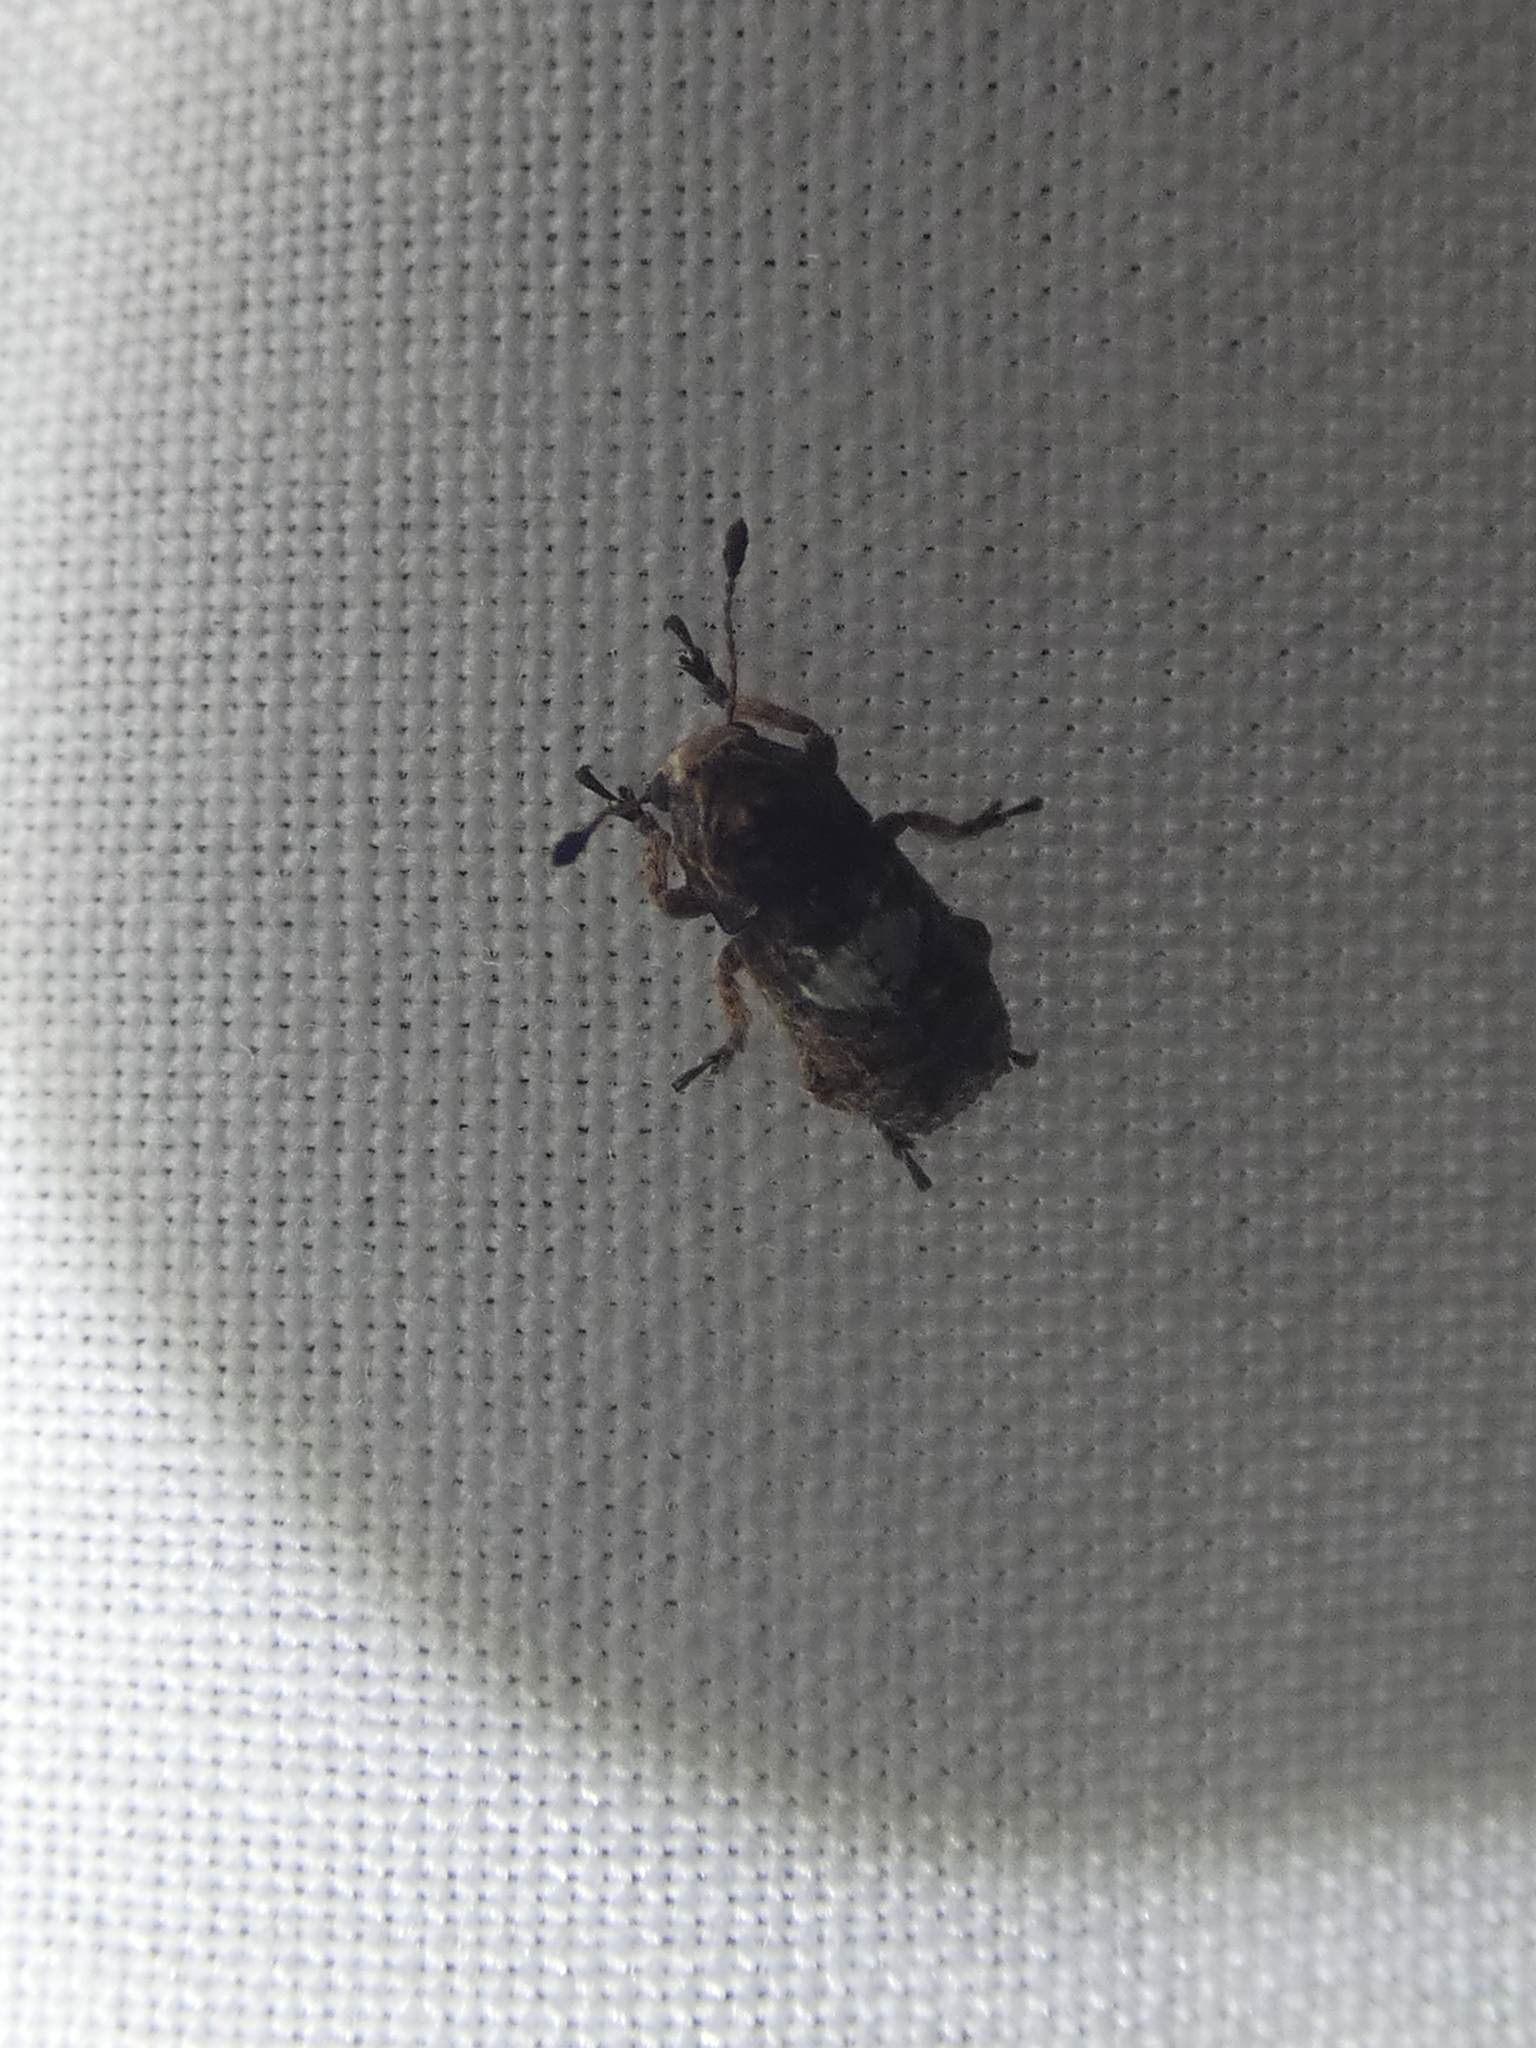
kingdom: Animalia
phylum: Arthropoda
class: Insecta
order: Coleoptera
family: Anthribidae
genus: Toxonotus
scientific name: Toxonotus cornutus
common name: Fungus weevil
